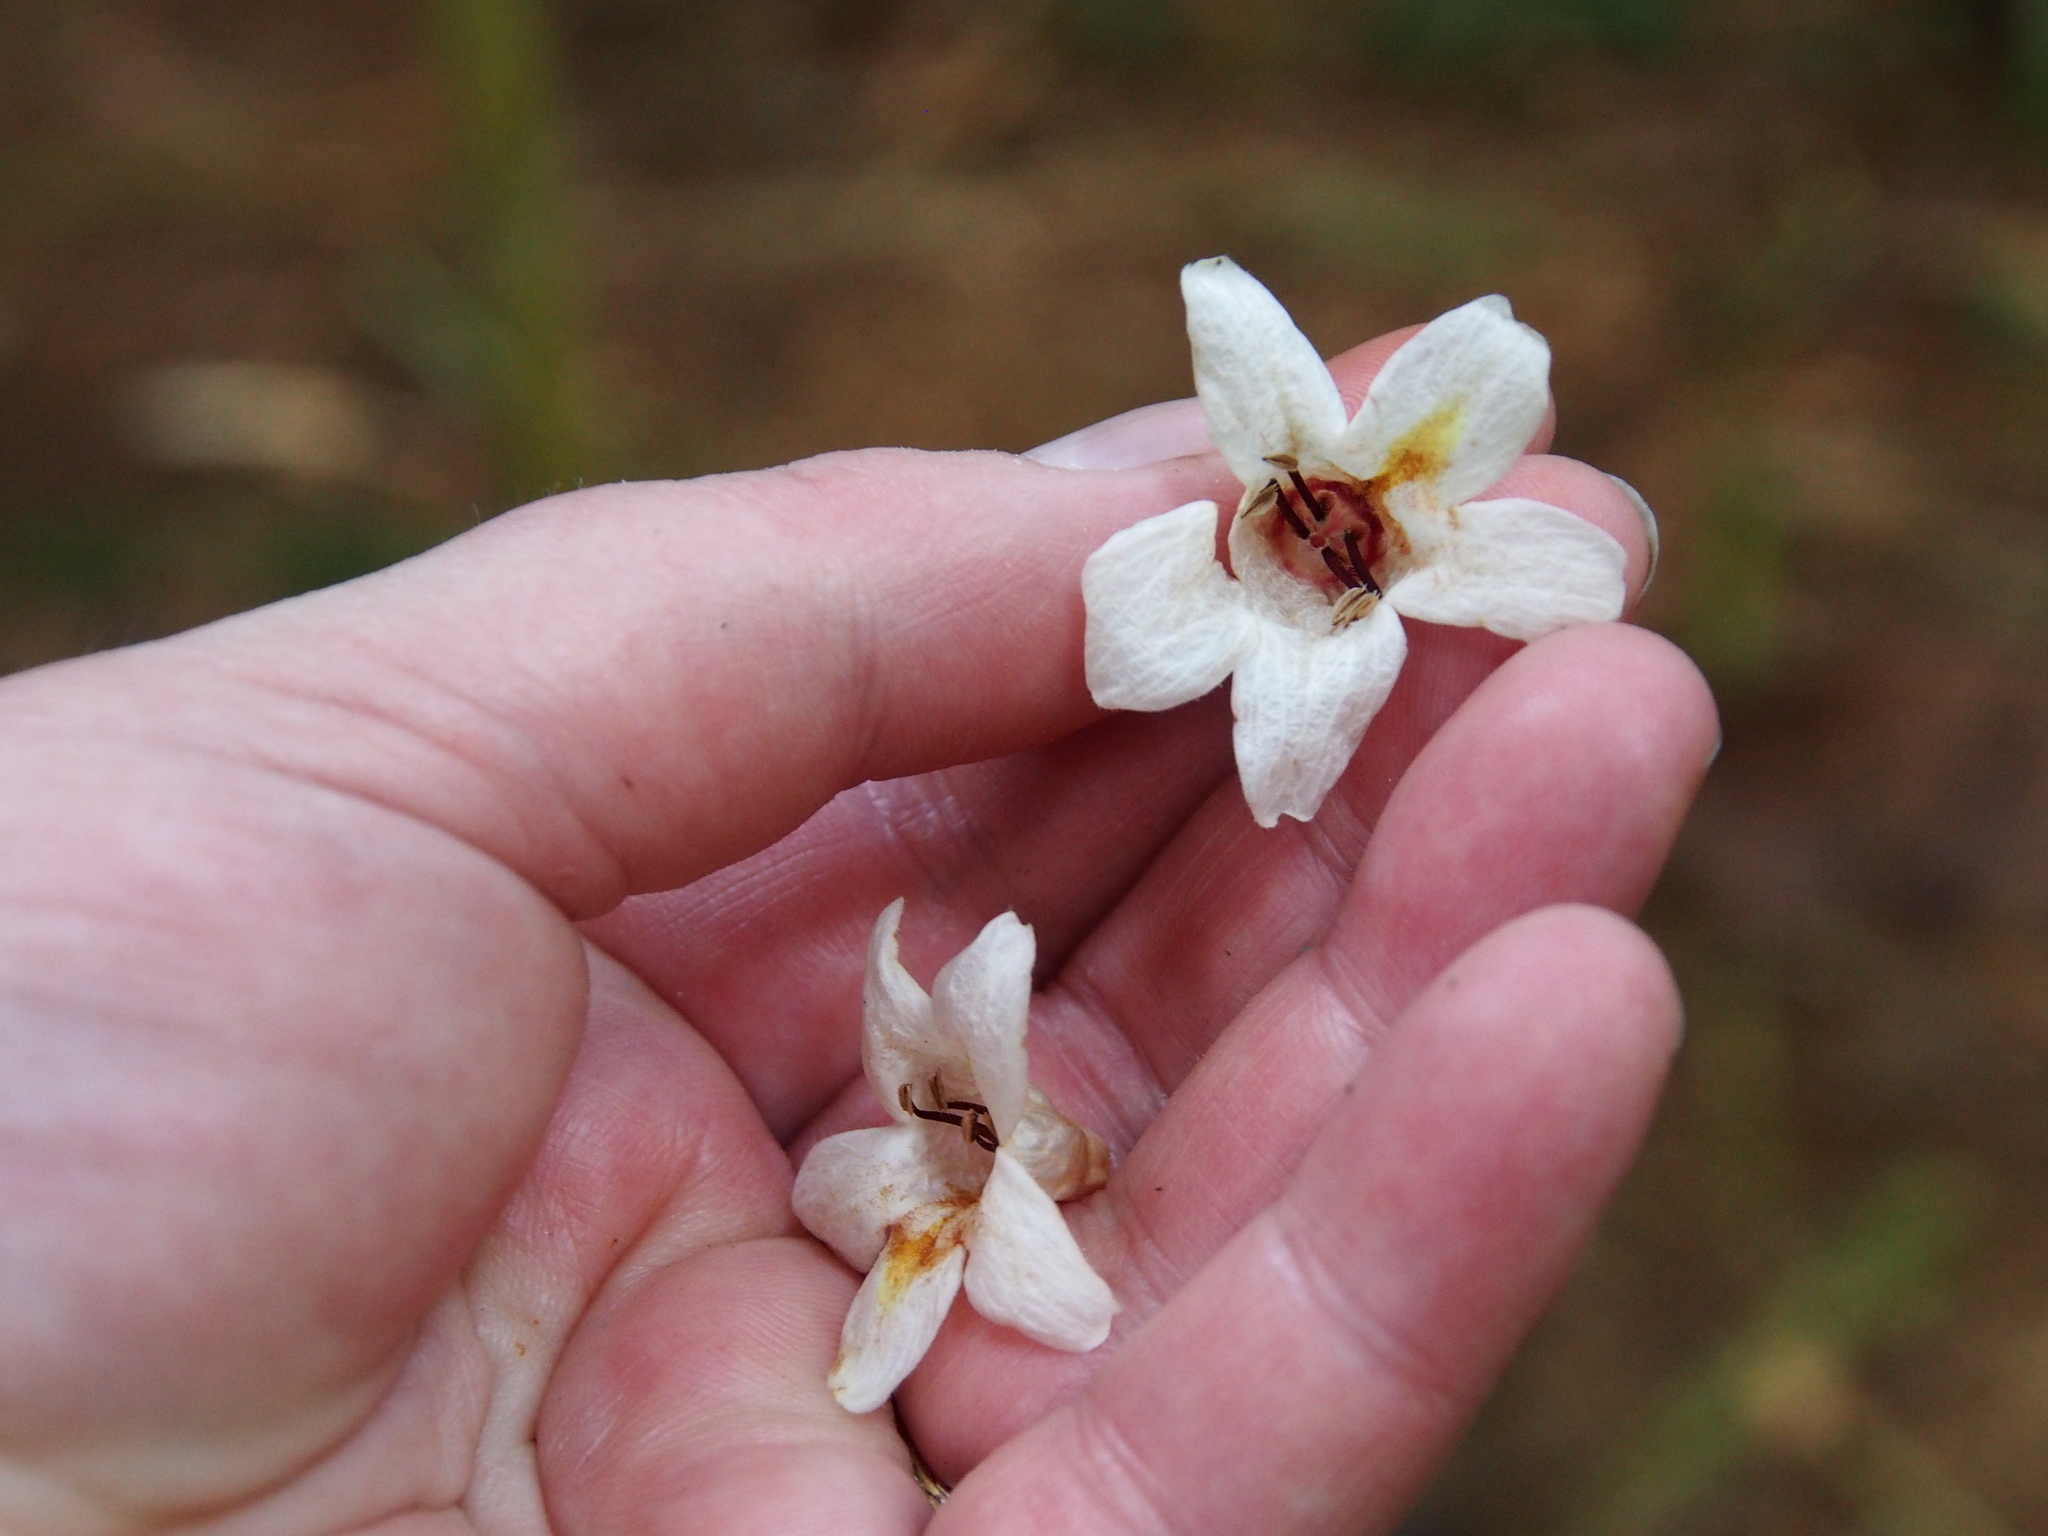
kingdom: Plantae
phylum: Tracheophyta
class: Magnoliopsida
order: Lamiales
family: Acanthaceae
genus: Bravaisia
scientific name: Bravaisia integerrima
